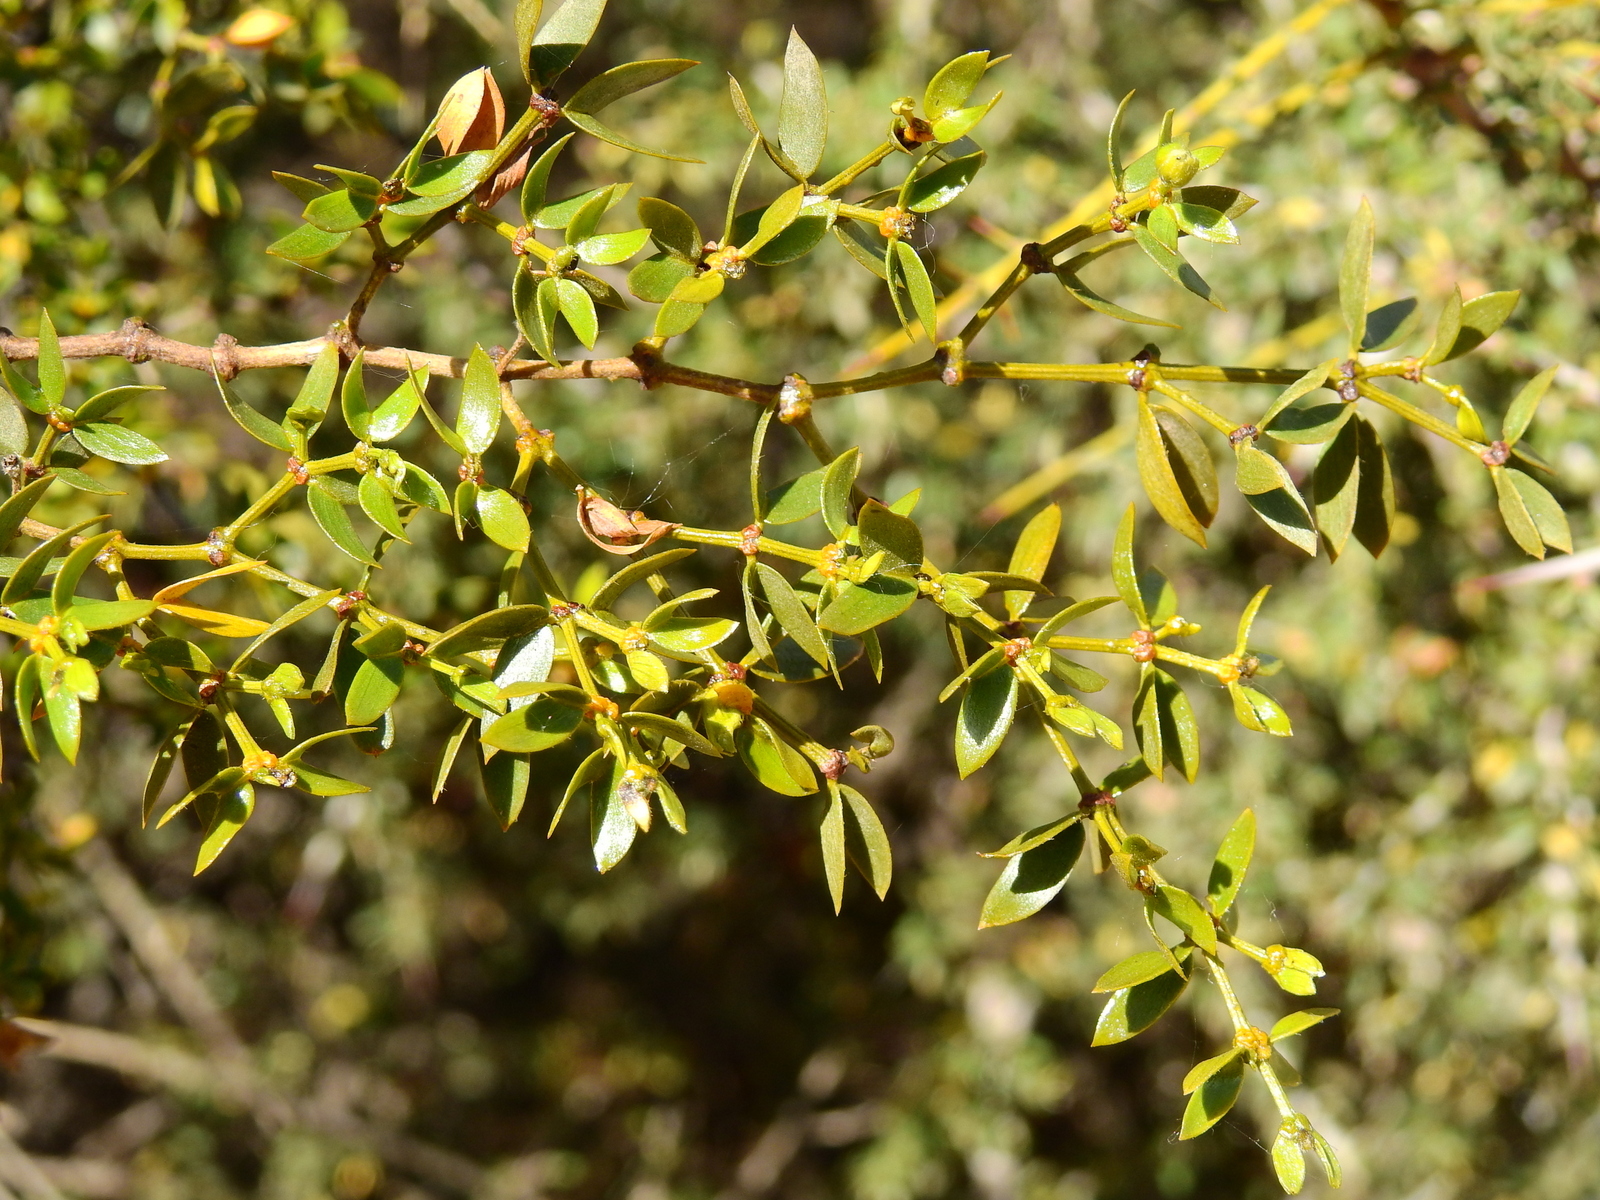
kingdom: Plantae
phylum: Tracheophyta
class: Magnoliopsida
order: Zygophyllales
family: Zygophyllaceae
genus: Larrea
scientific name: Larrea divaricata
